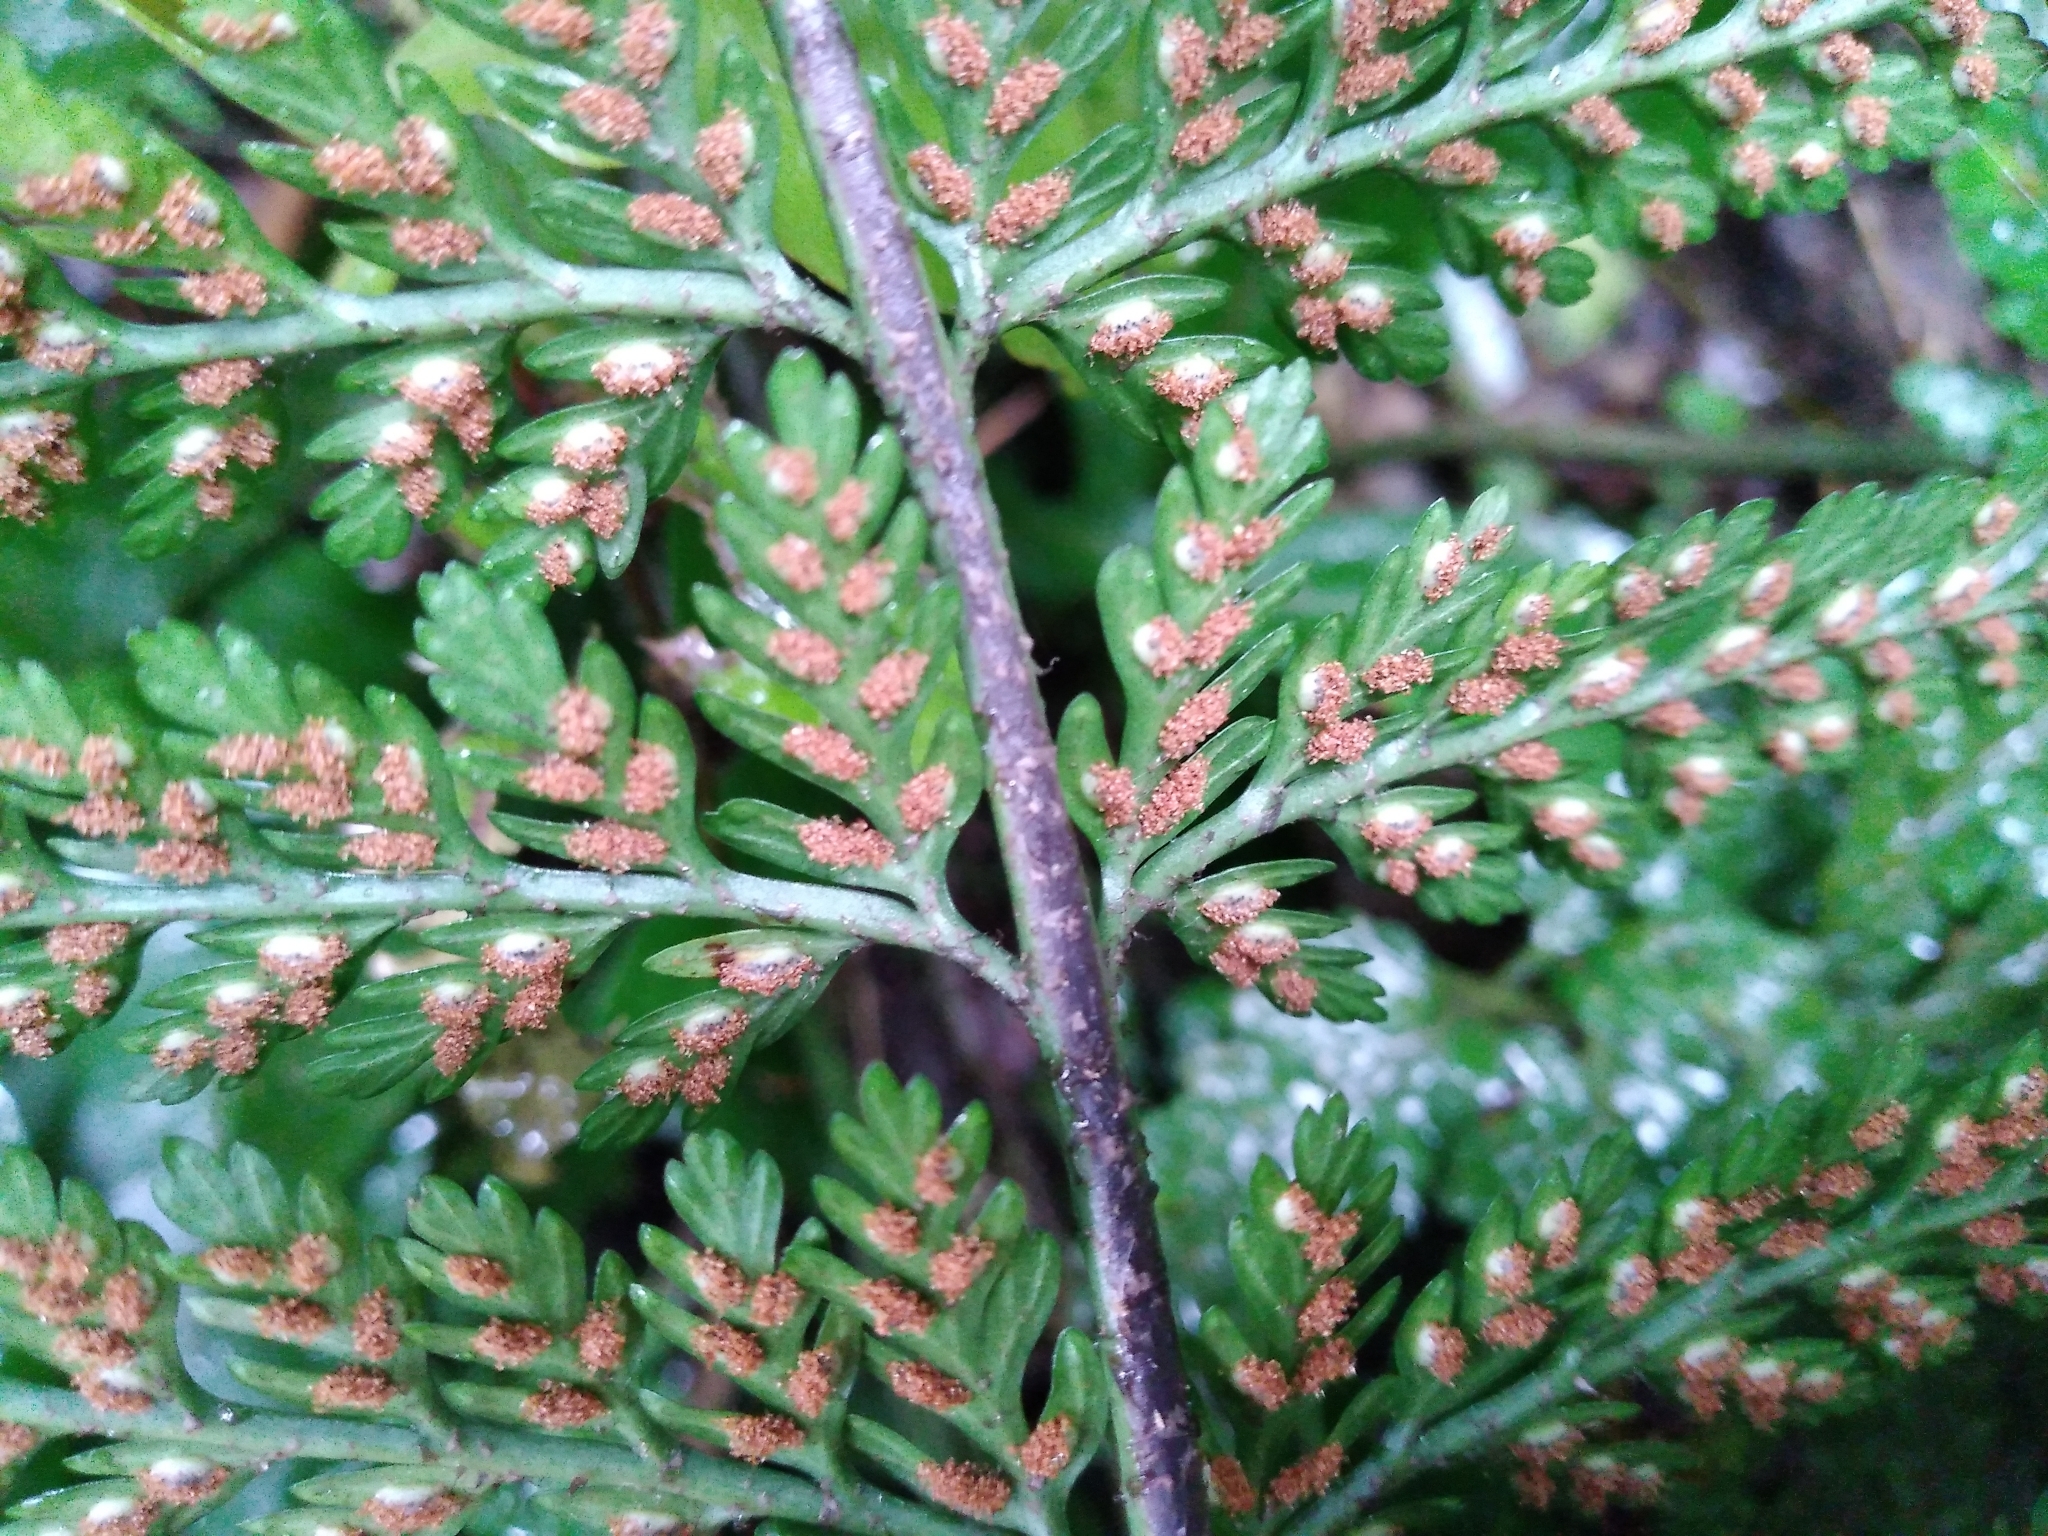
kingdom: Plantae
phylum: Tracheophyta
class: Polypodiopsida
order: Polypodiales
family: Aspleniaceae
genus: Asplenium
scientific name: Asplenium
